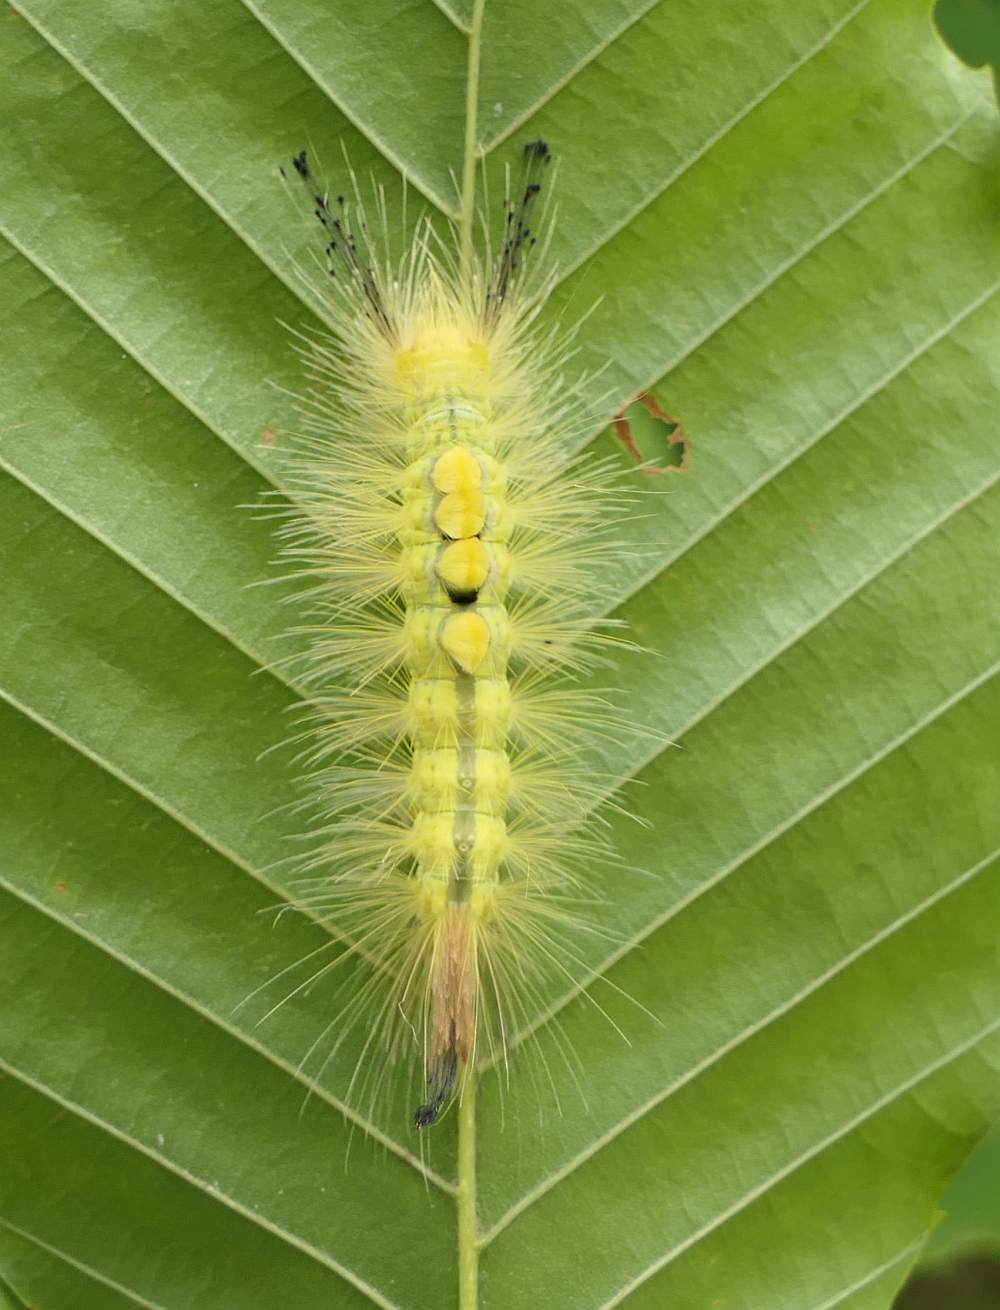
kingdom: Animalia
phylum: Arthropoda
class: Insecta
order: Lepidoptera
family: Erebidae
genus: Orgyia
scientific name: Orgyia definita
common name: Definite tussock moth
